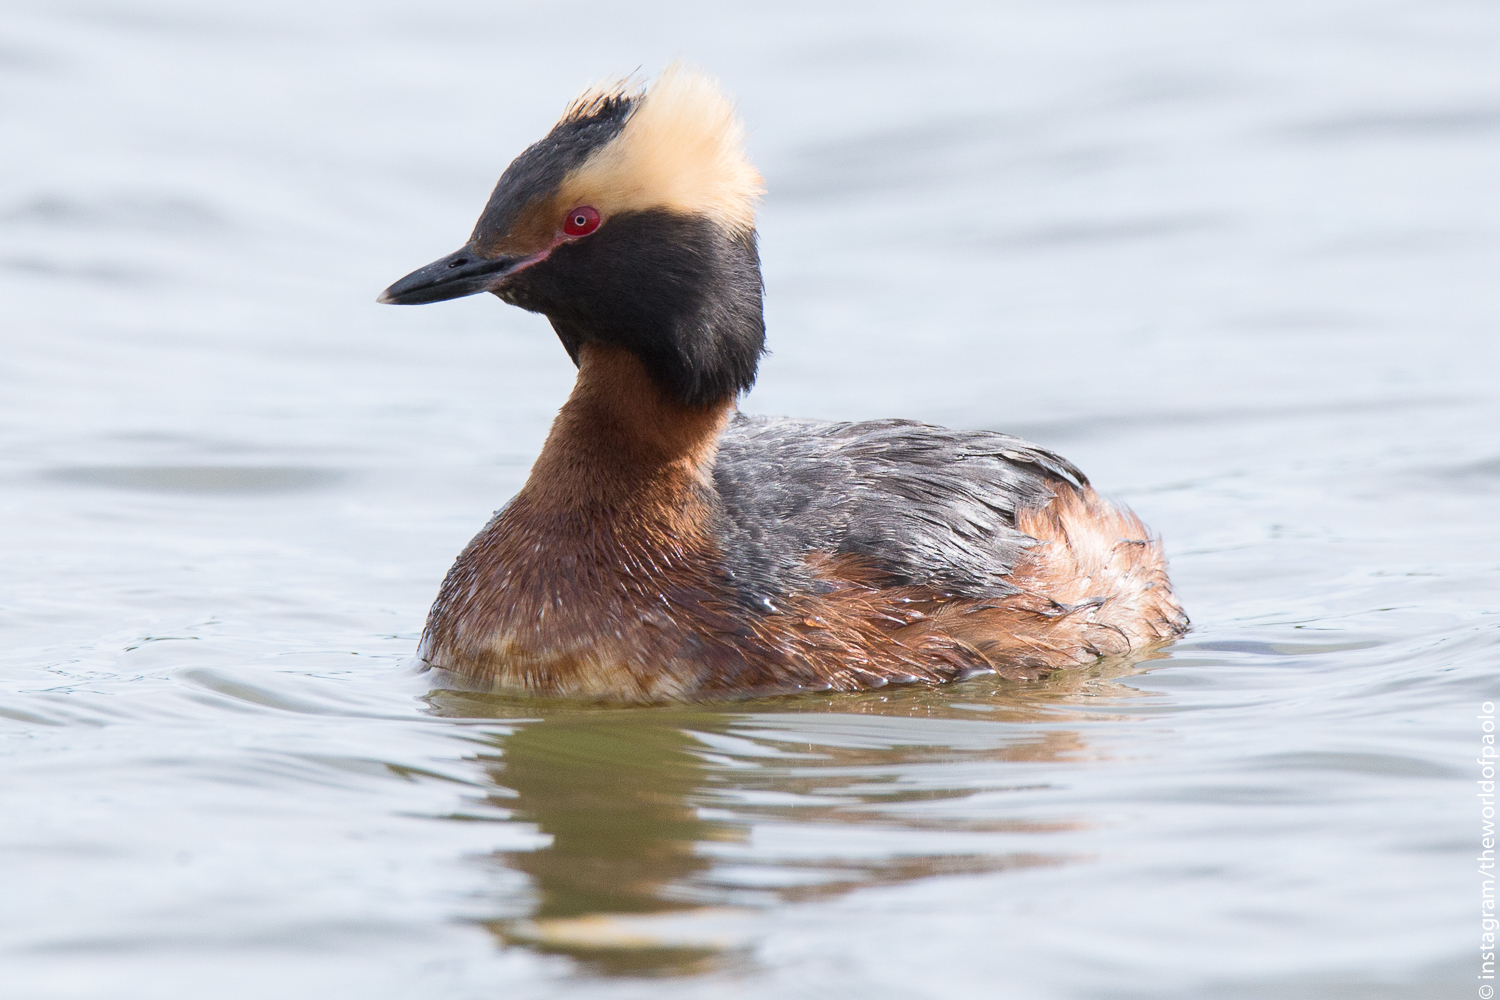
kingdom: Animalia
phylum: Chordata
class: Aves
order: Podicipediformes
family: Podicipedidae
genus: Podiceps
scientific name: Podiceps auritus
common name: Horned grebe
